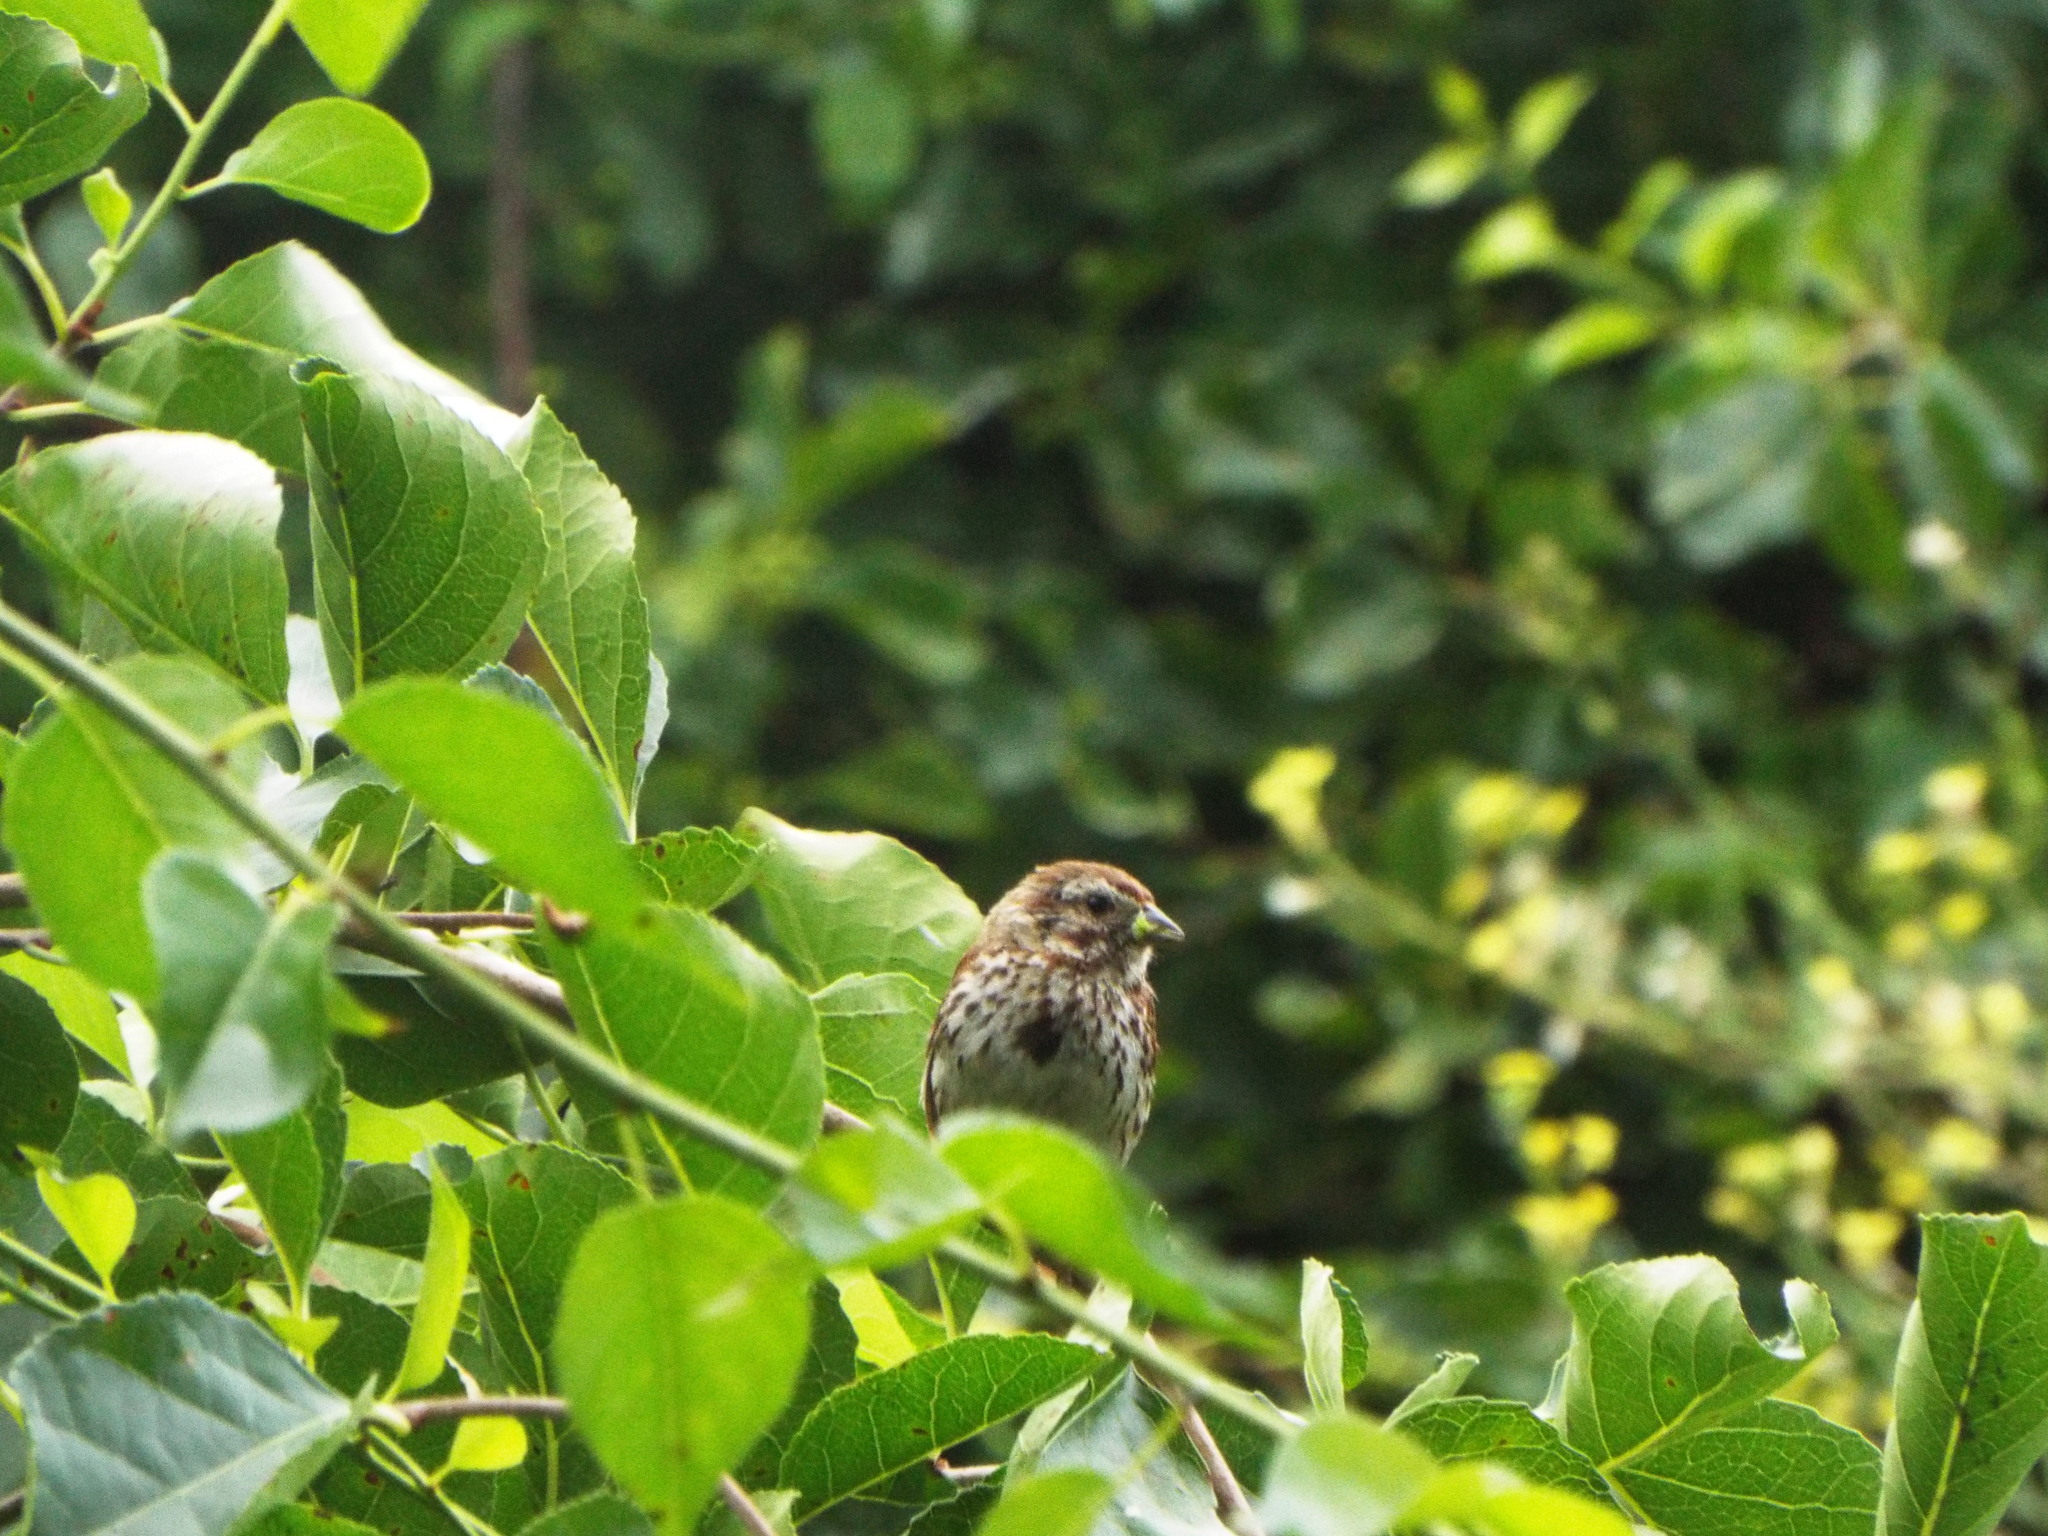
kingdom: Animalia
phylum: Chordata
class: Aves
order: Passeriformes
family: Passerellidae
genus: Melospiza
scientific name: Melospiza melodia
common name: Song sparrow
